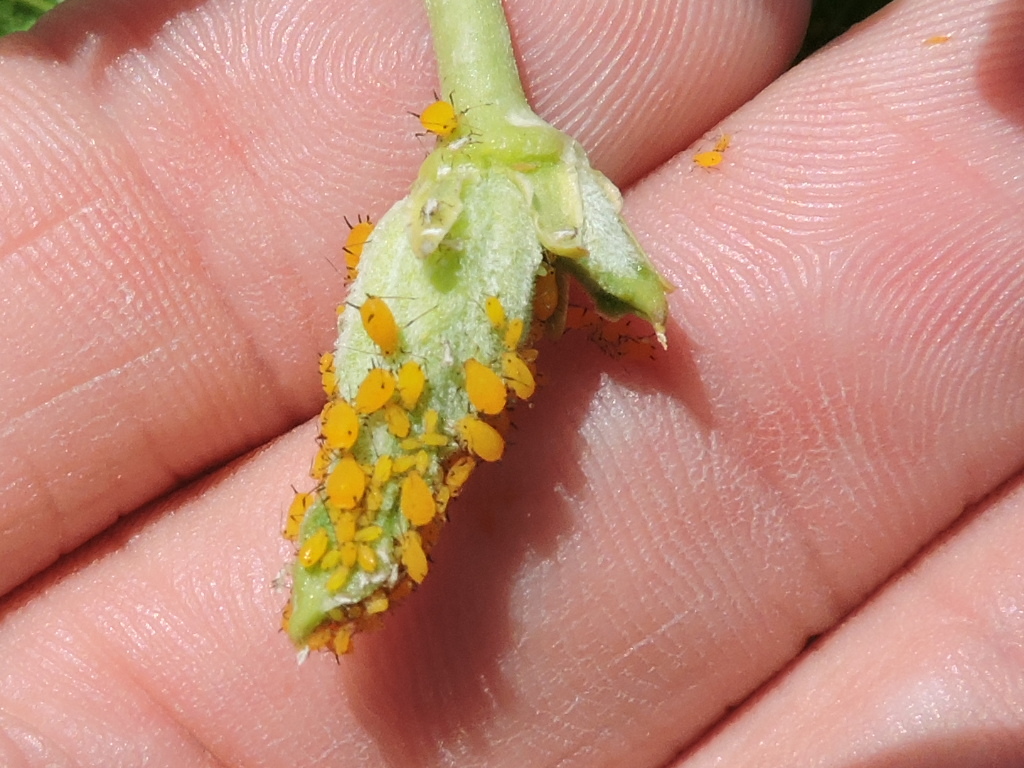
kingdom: Animalia
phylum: Arthropoda
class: Insecta
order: Hemiptera
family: Aphididae
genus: Aphis
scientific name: Aphis nerii
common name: Oleander aphid
